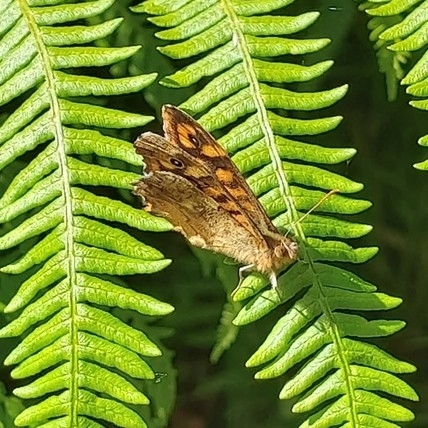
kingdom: Animalia
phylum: Arthropoda
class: Insecta
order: Lepidoptera
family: Nymphalidae
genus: Pararge
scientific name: Pararge aegeria
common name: Speckled wood
